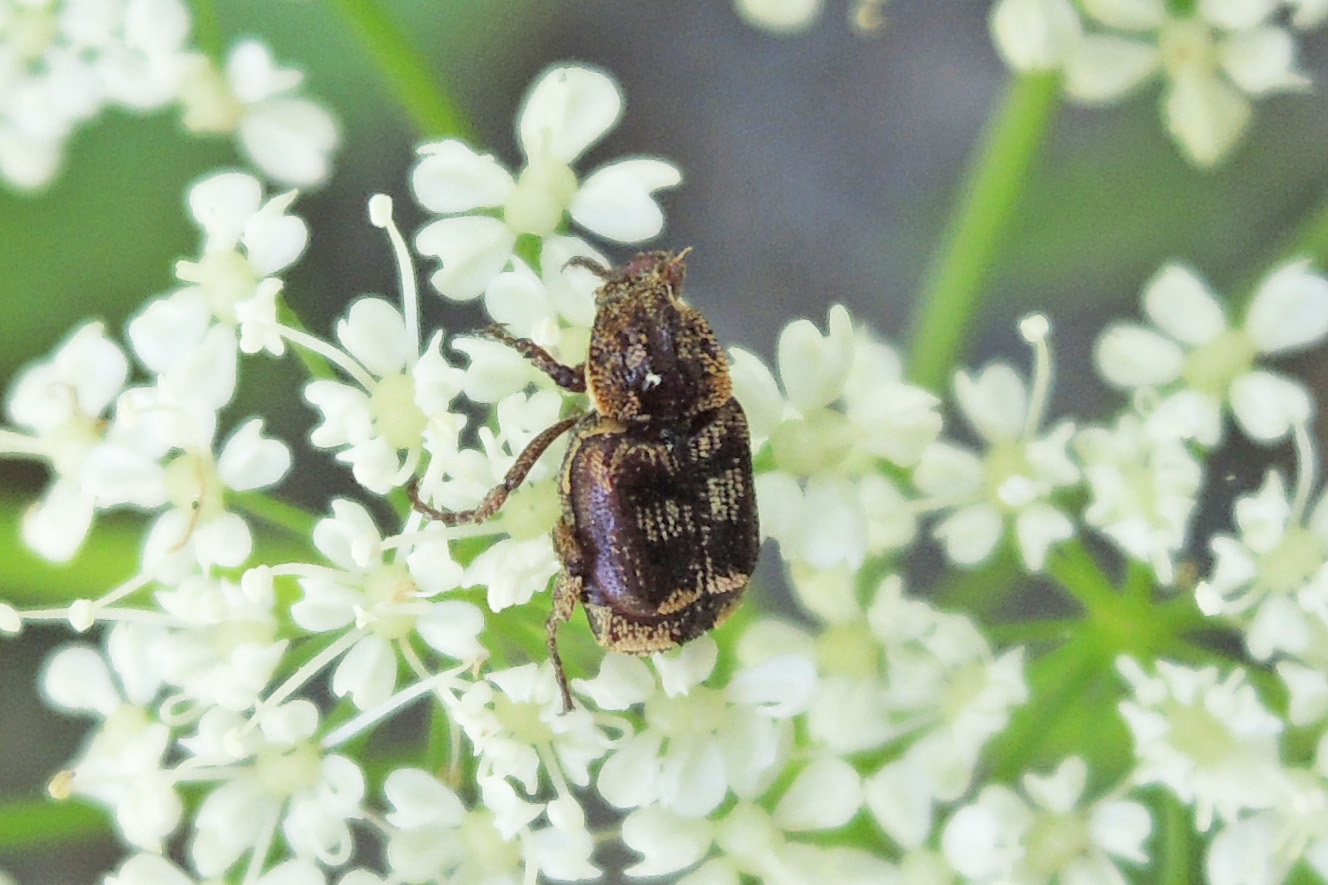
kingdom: Animalia
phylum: Arthropoda
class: Insecta
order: Coleoptera
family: Scarabaeidae
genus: Valgus
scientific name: Valgus canaliculatus
